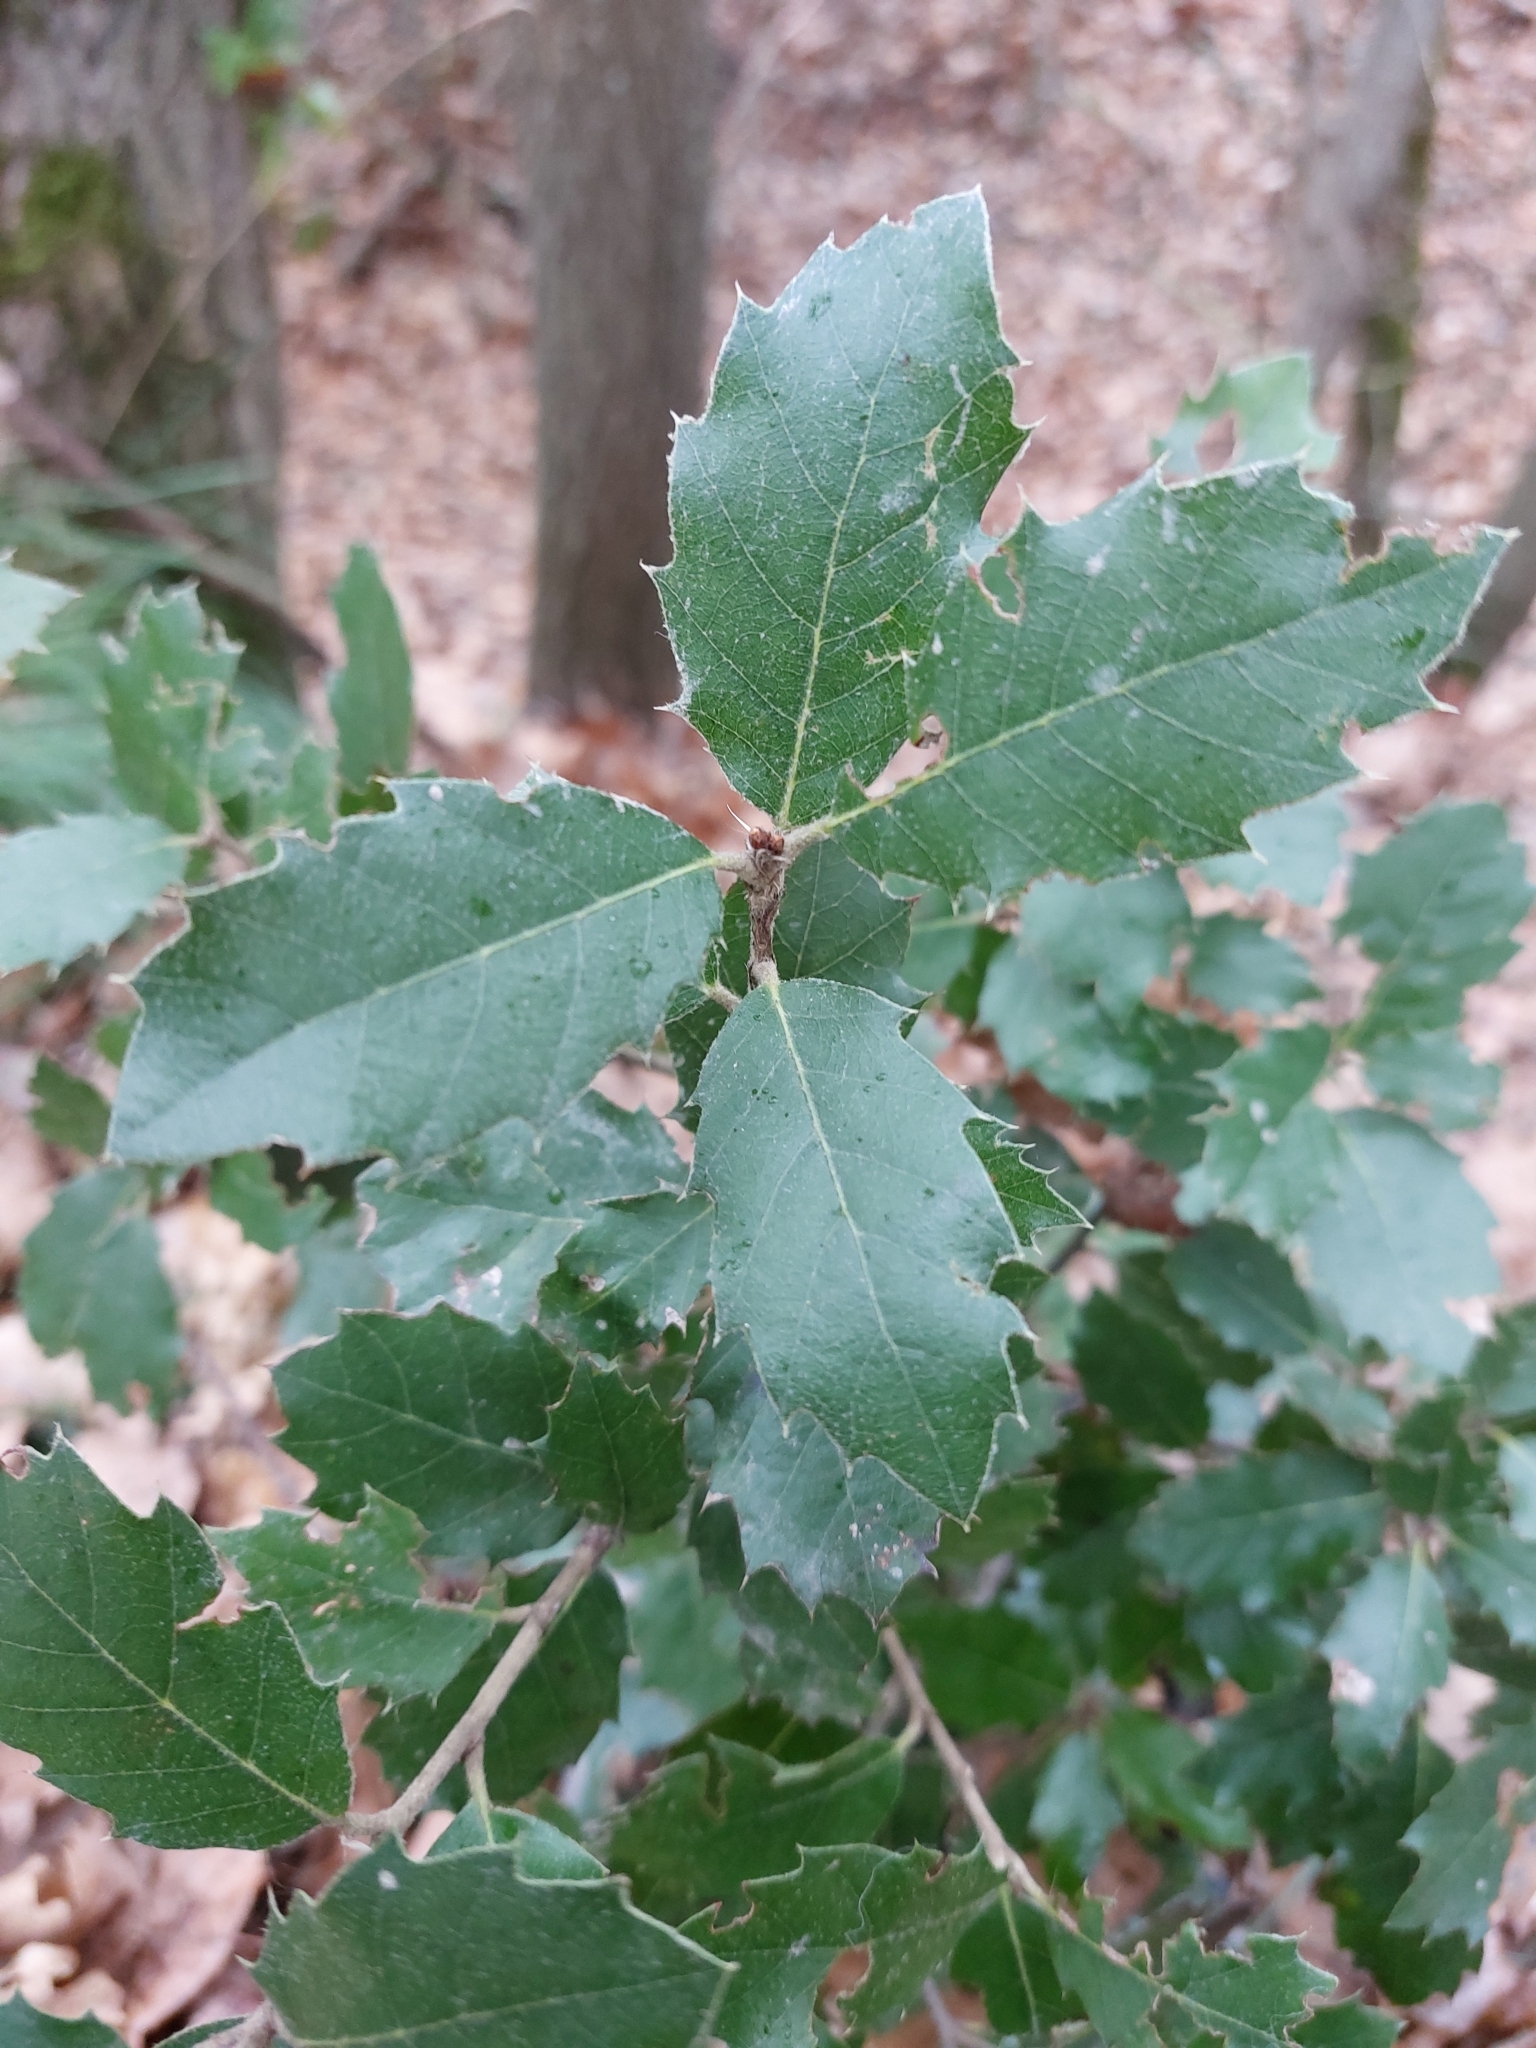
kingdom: Plantae
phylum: Tracheophyta
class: Magnoliopsida
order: Fagales
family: Fagaceae
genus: Quercus
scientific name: Quercus ilex
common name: Evergreen oak
